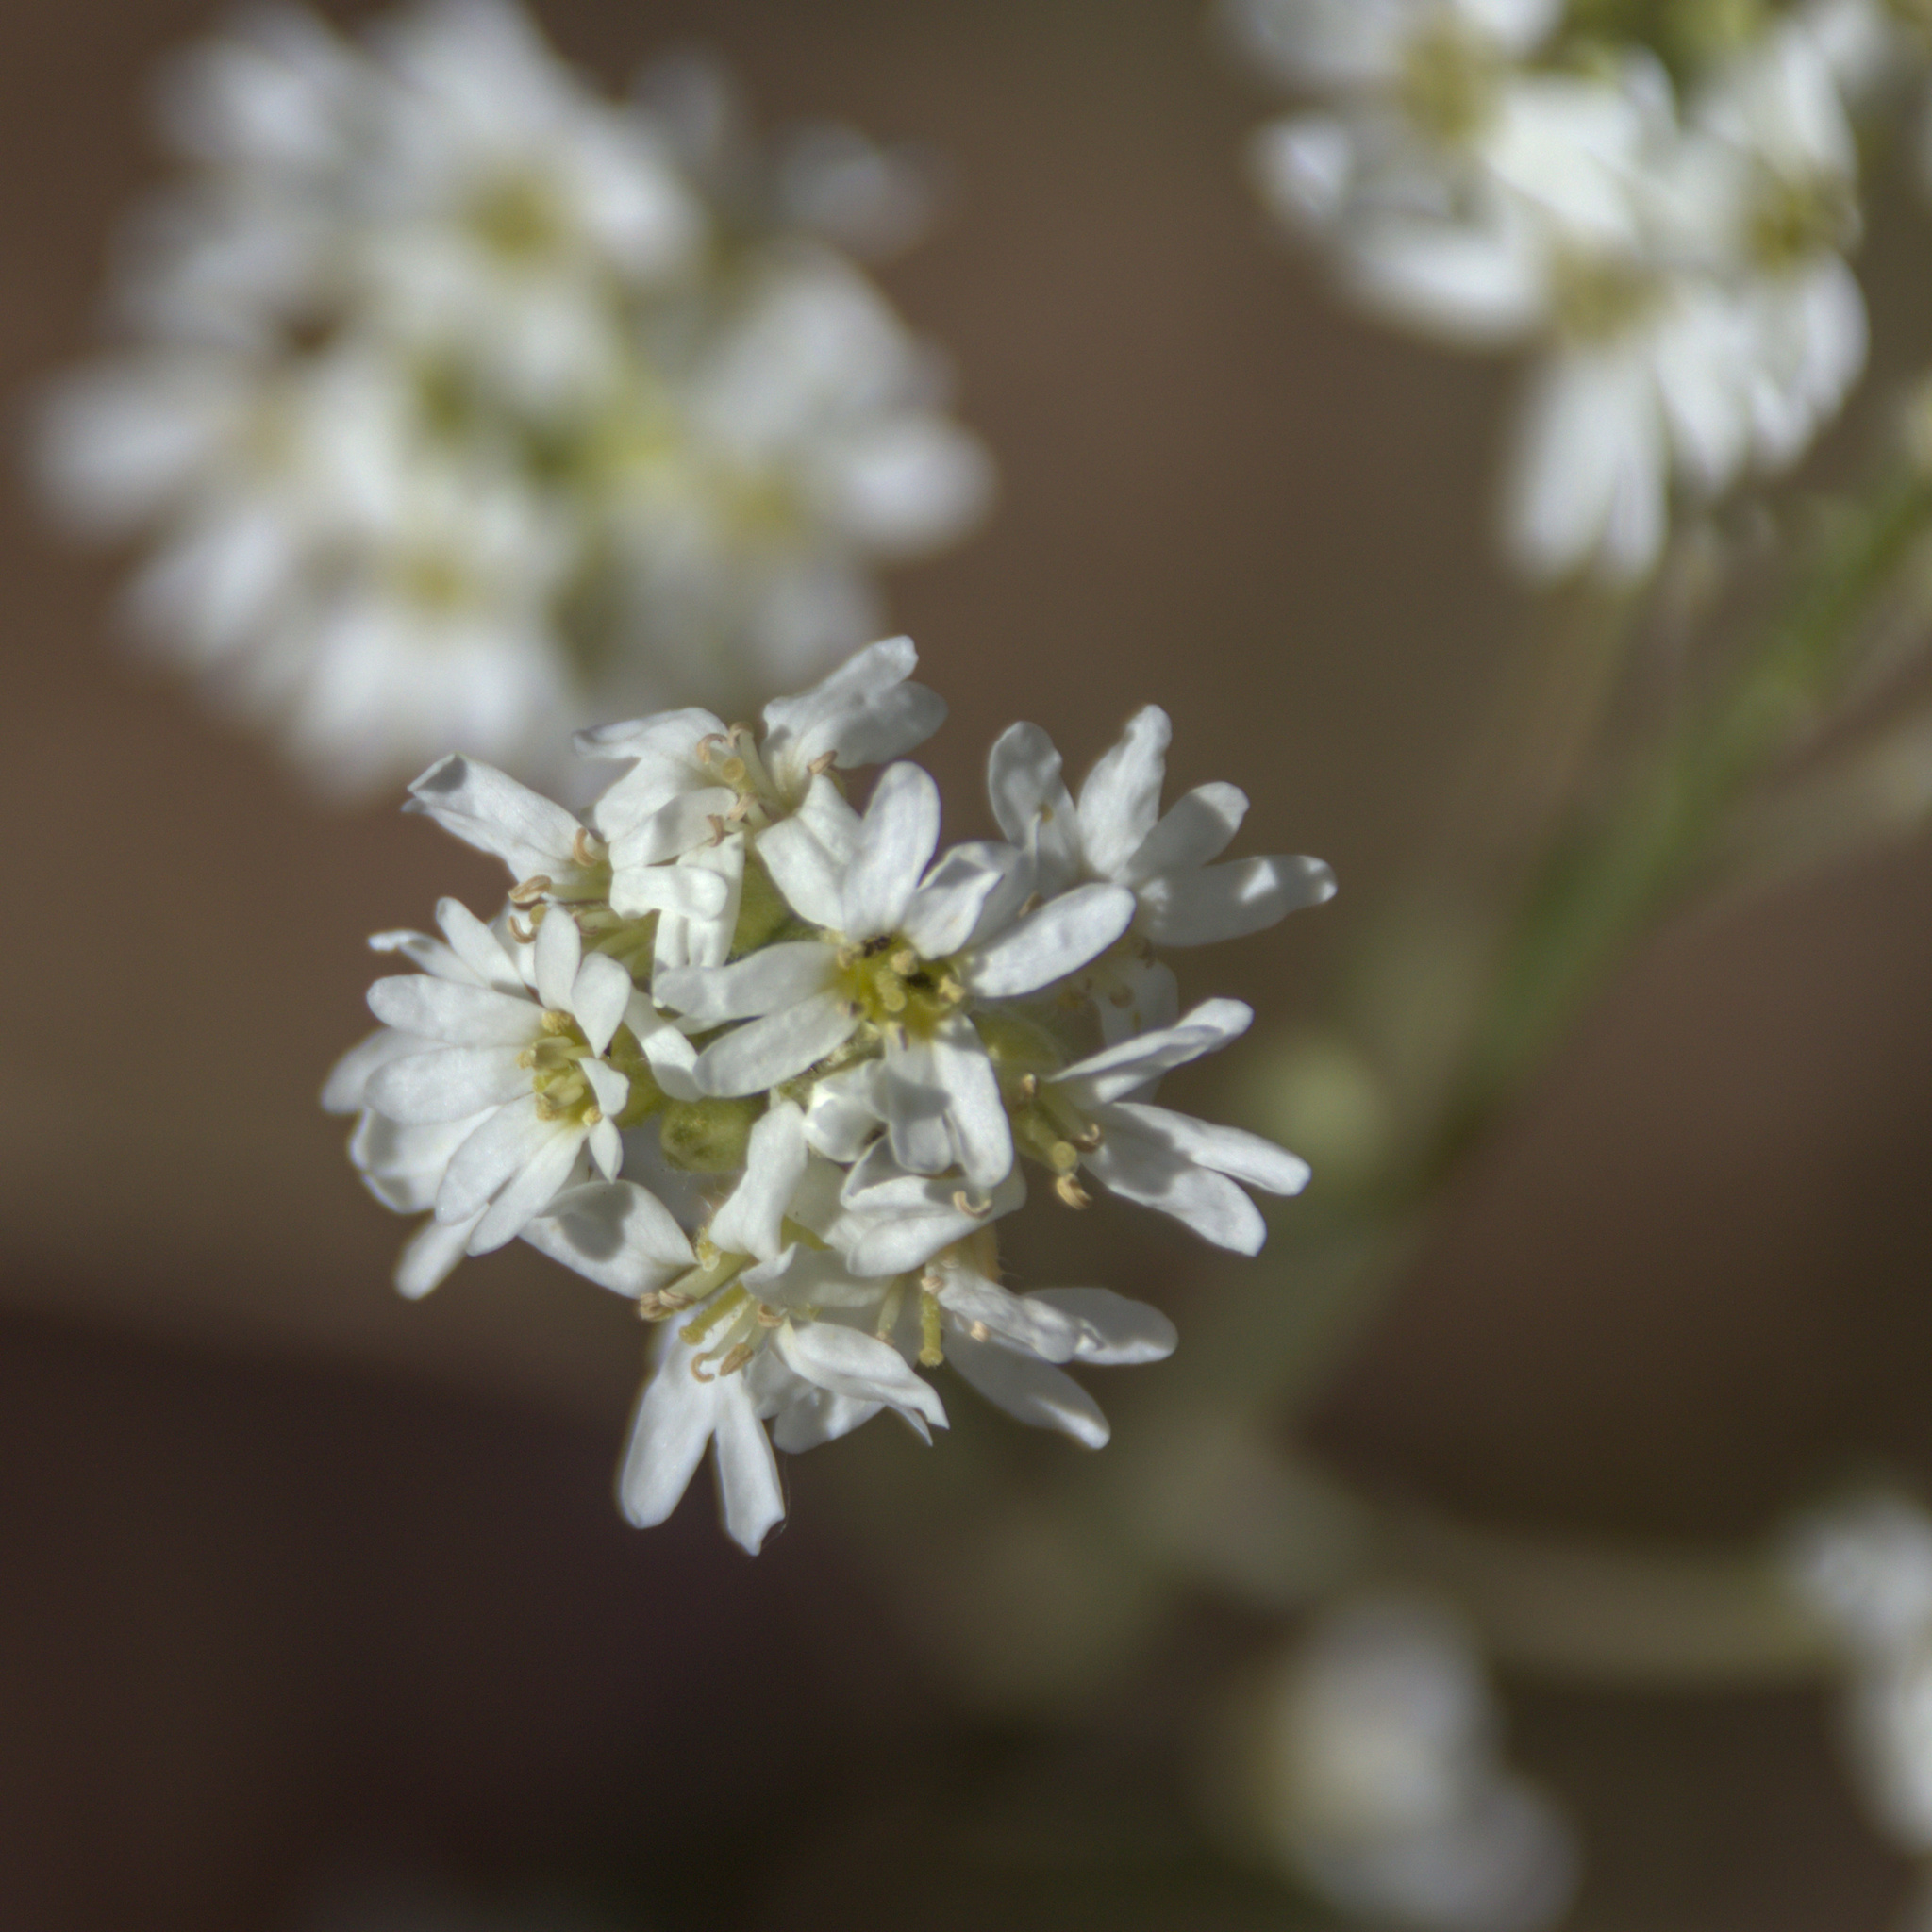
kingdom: Plantae
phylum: Tracheophyta
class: Magnoliopsida
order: Brassicales
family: Brassicaceae
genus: Berteroa
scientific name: Berteroa incana
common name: Hoary alison
